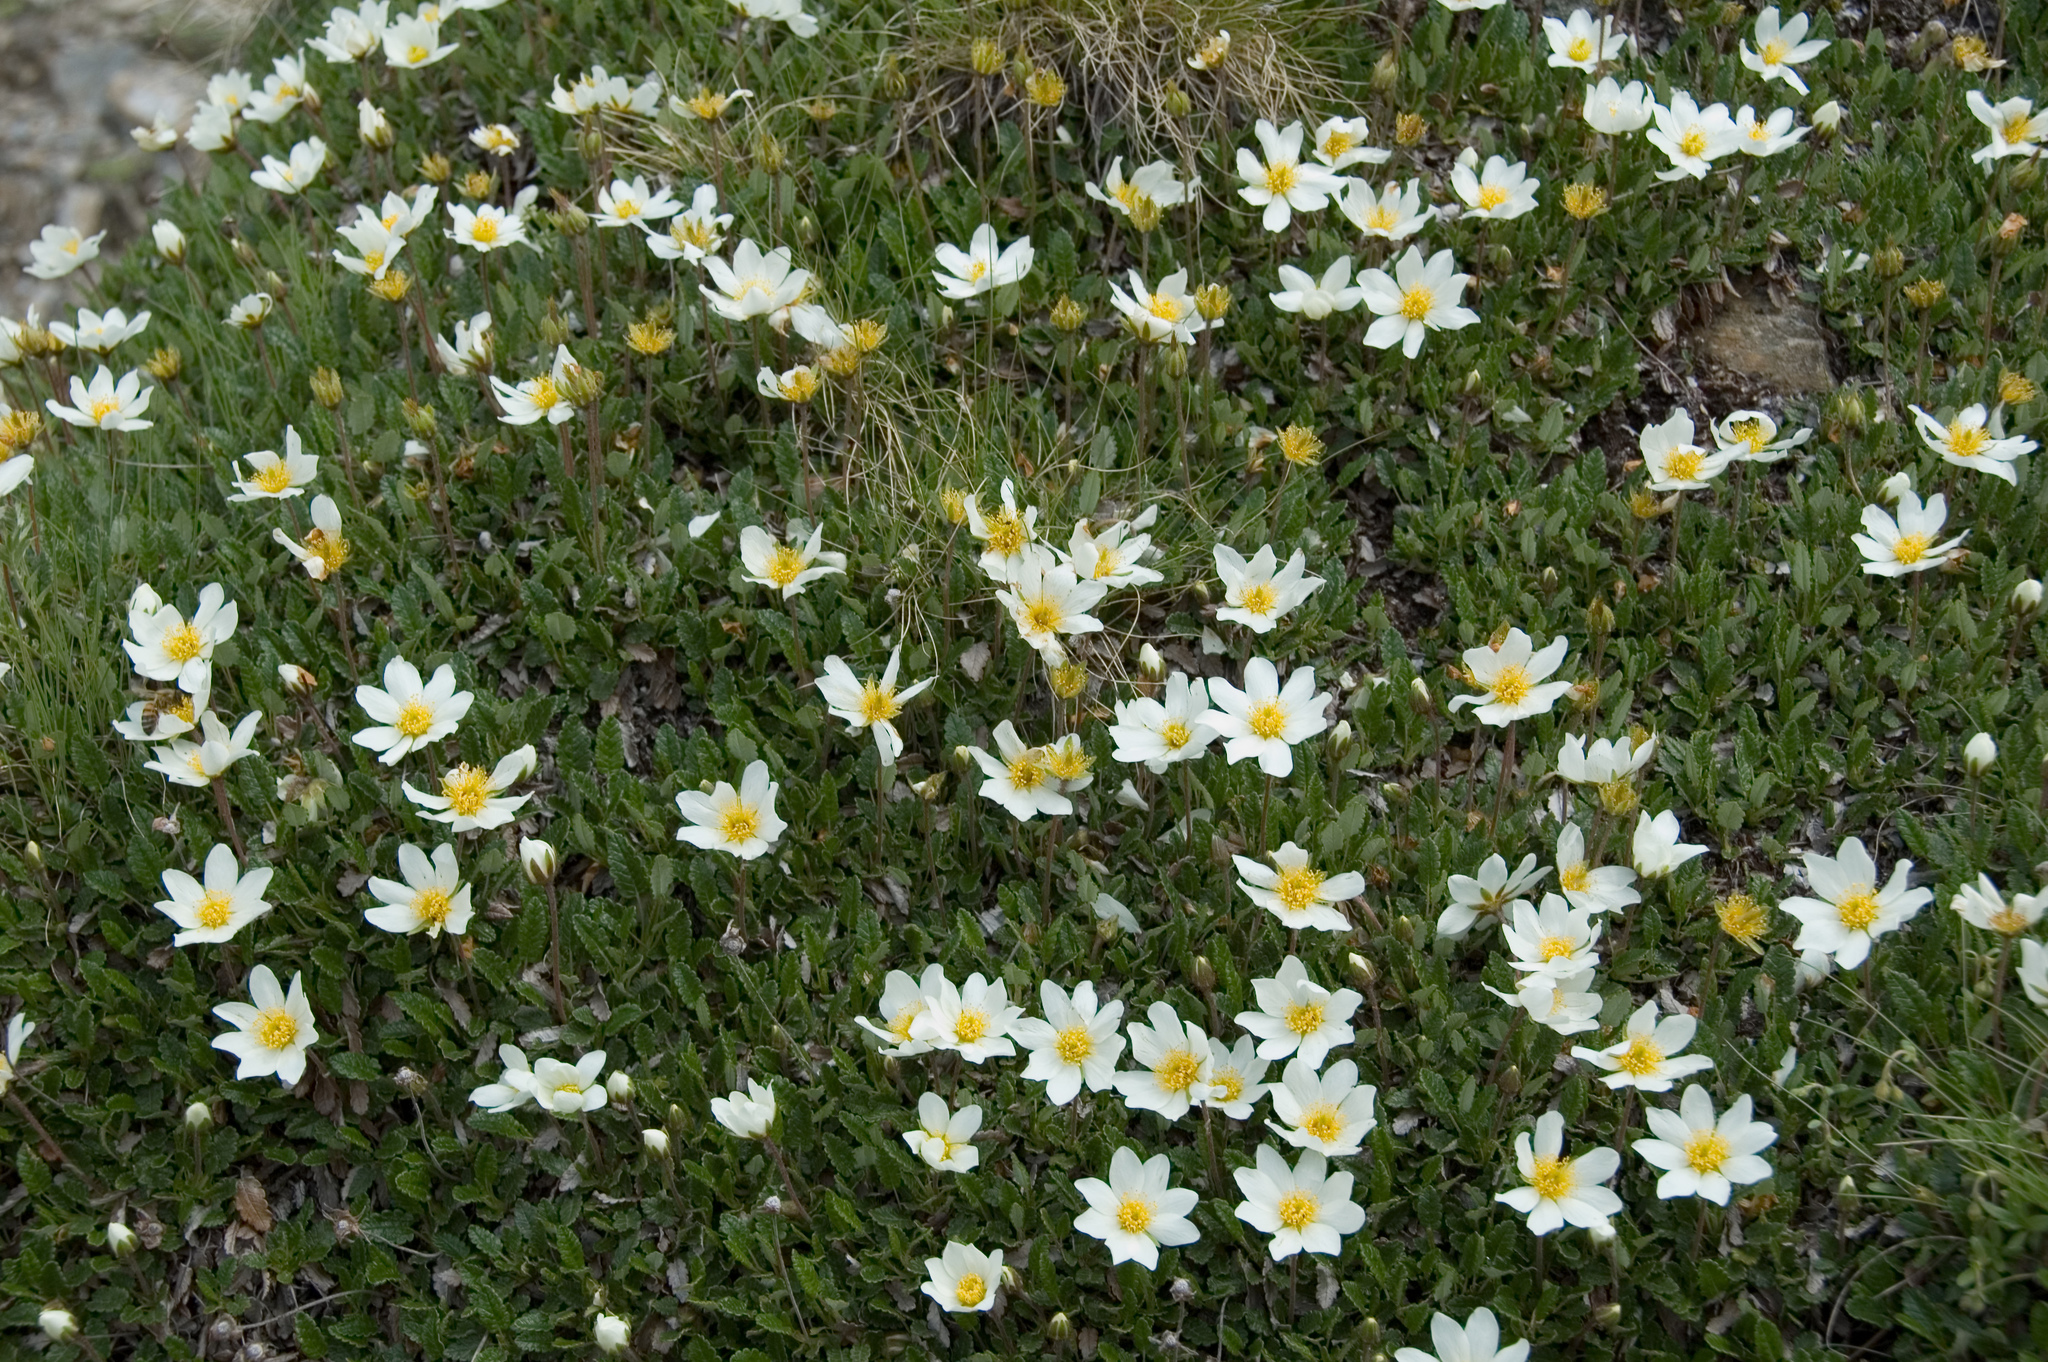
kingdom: Plantae
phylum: Tracheophyta
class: Magnoliopsida
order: Rosales
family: Rosaceae
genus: Dryas
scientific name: Dryas octopetala
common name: Eight-petal mountain-avens
